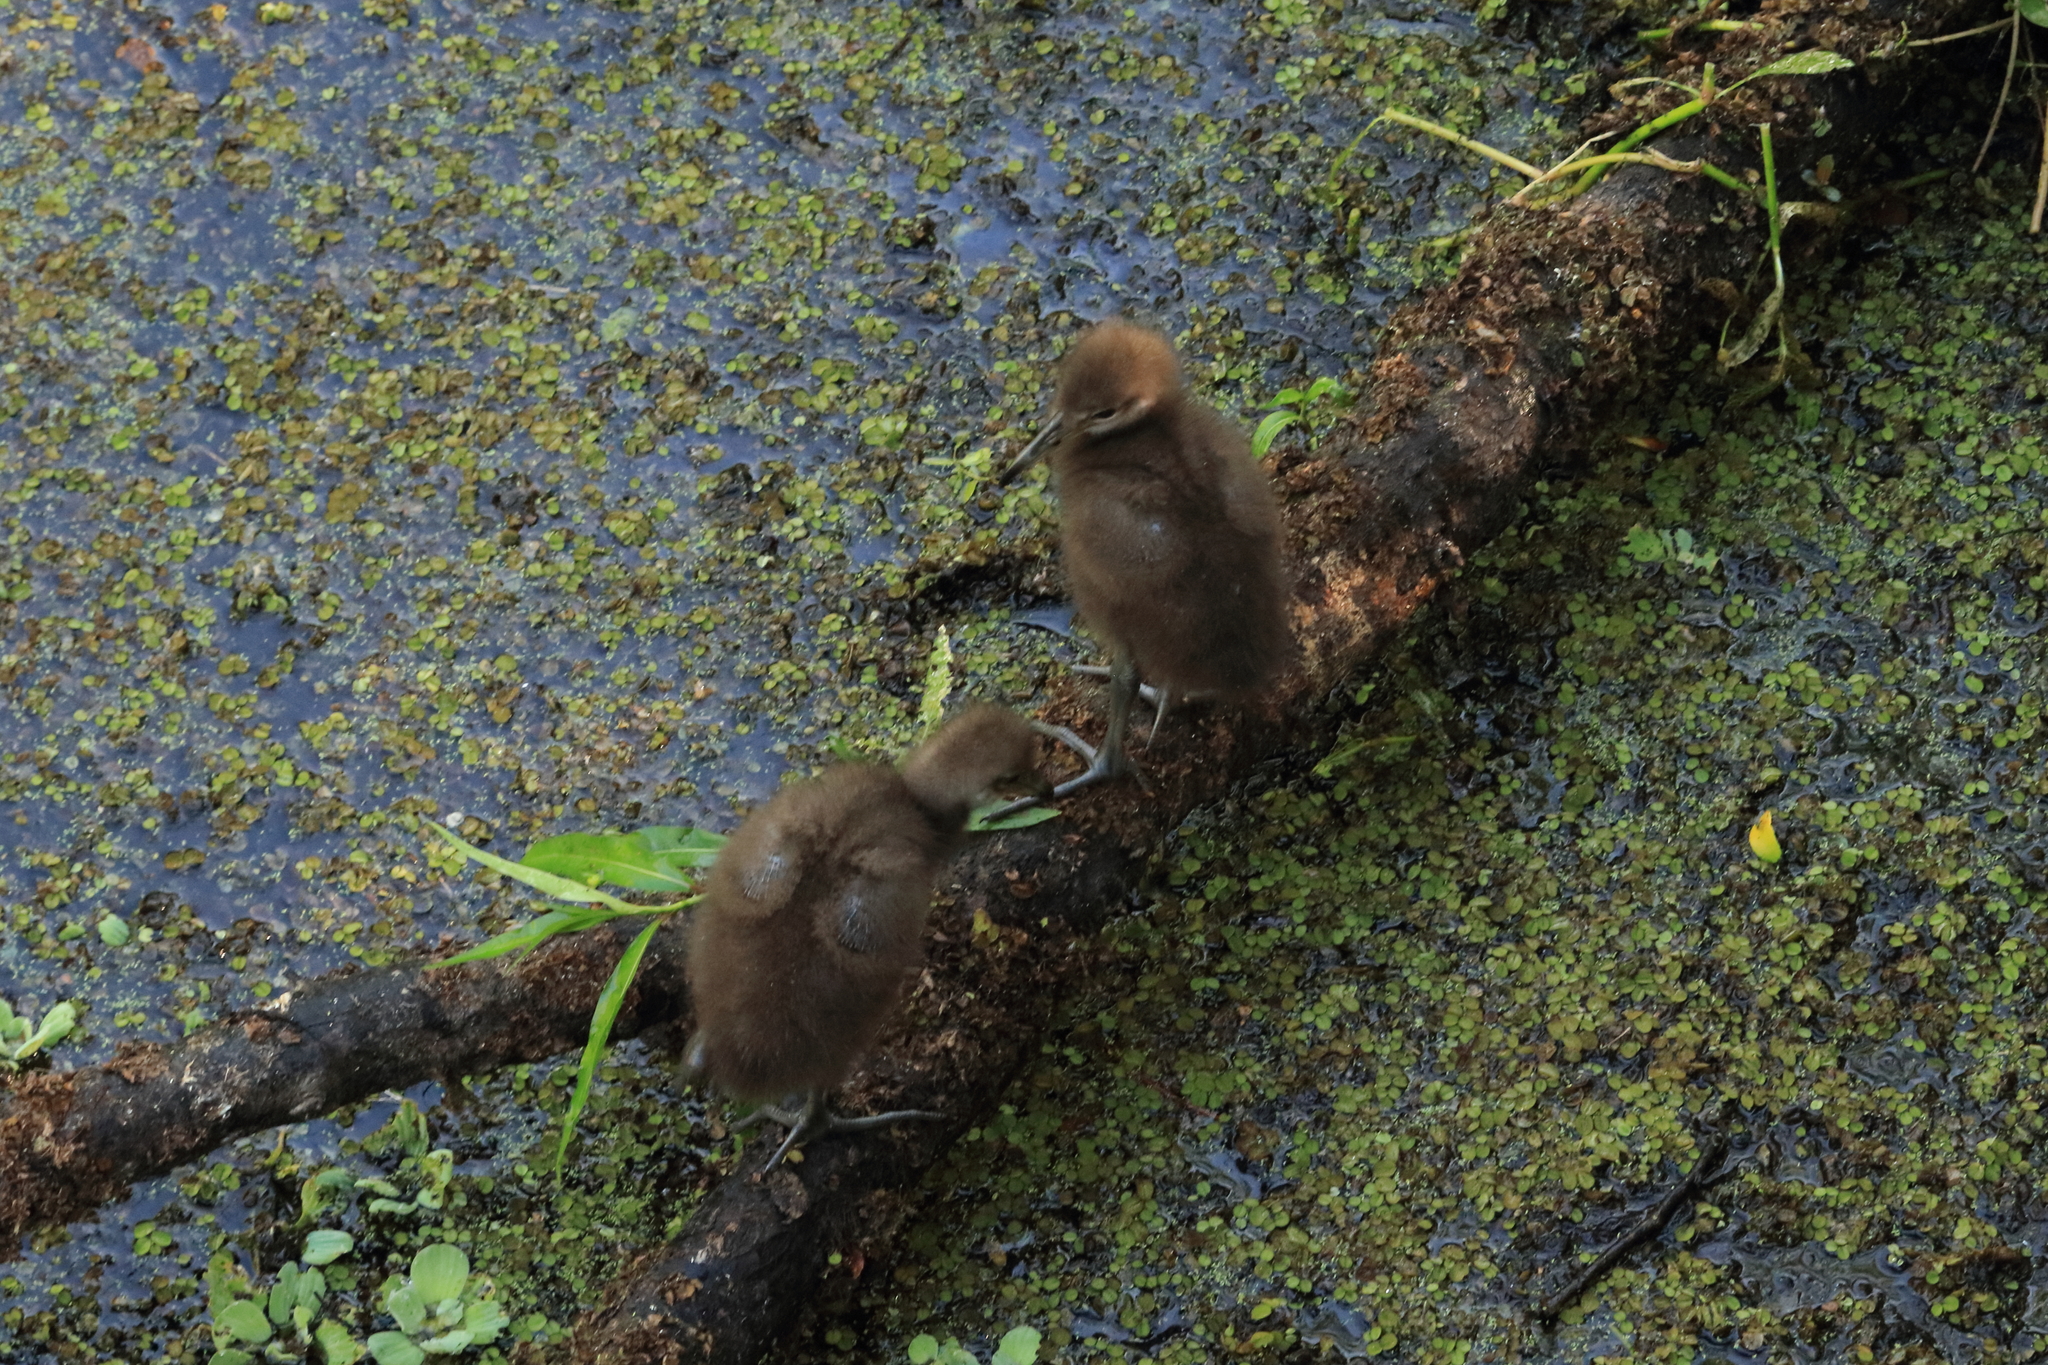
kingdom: Animalia
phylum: Chordata
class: Aves
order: Gruiformes
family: Aramidae
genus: Aramus
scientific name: Aramus guarauna
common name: Limpkin
